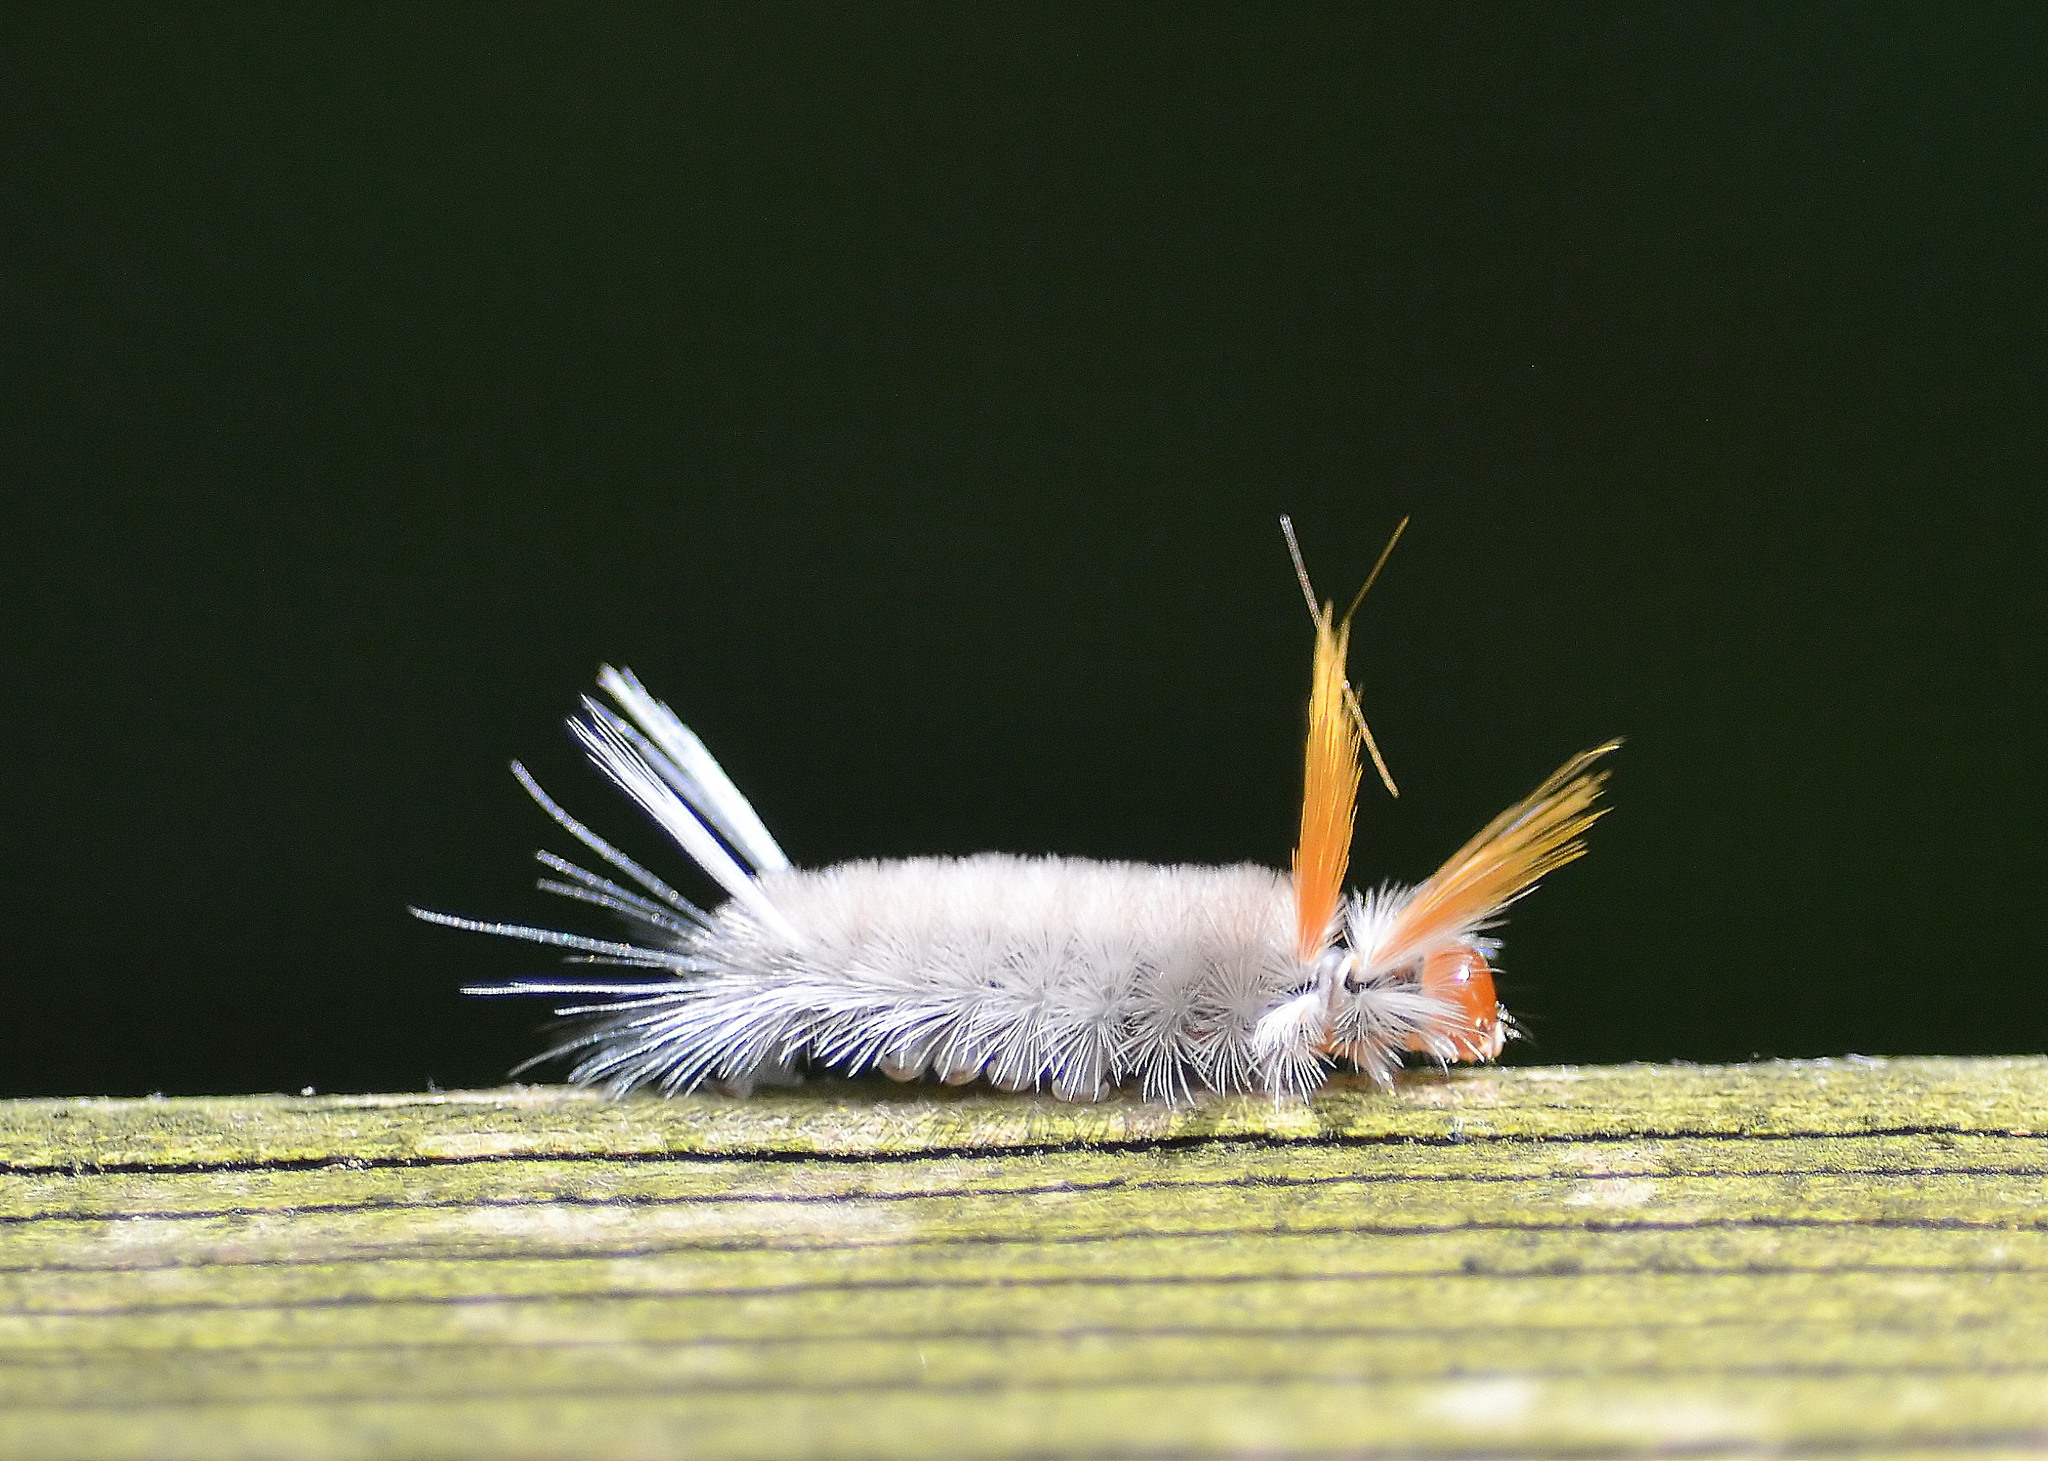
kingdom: Animalia
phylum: Arthropoda
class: Insecta
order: Lepidoptera
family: Erebidae
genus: Halysidota
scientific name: Halysidota harrisii
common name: Sycamore tussock moth
